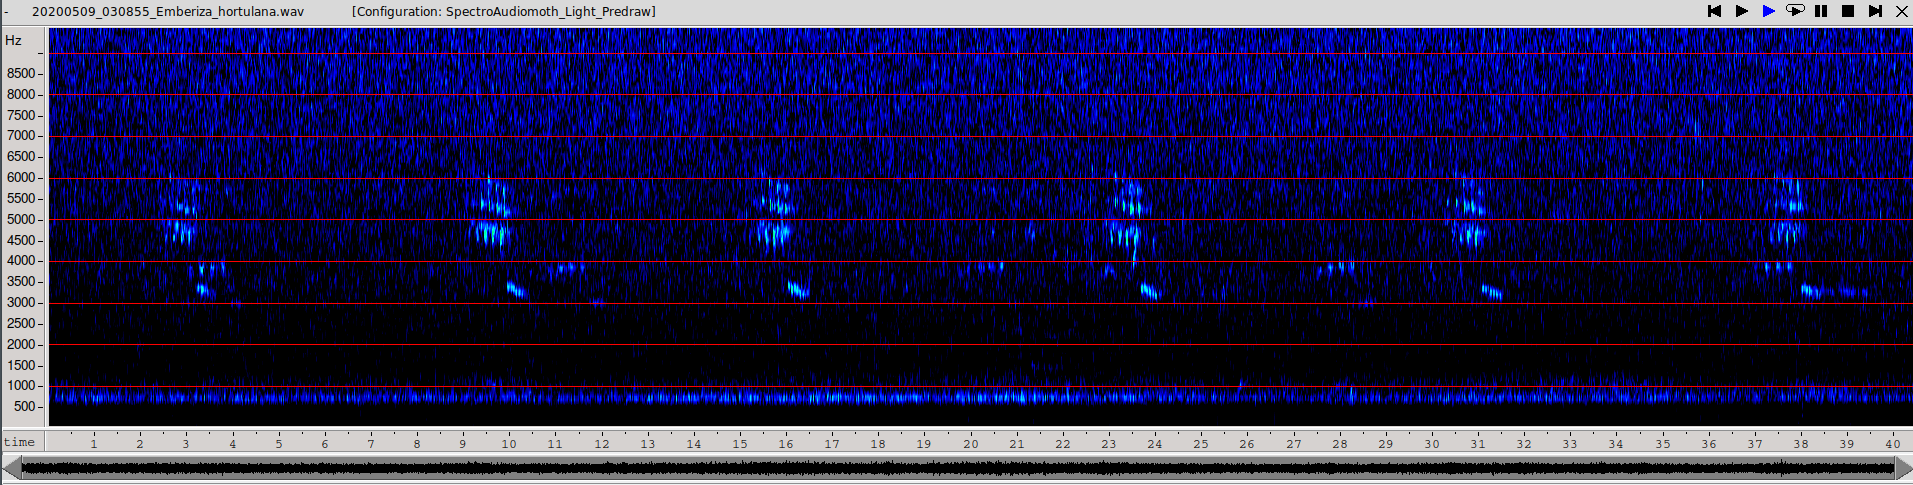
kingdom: Animalia
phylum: Chordata
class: Aves
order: Passeriformes
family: Emberizidae
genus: Emberiza
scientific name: Emberiza hortulana
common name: Ortolan bunting
